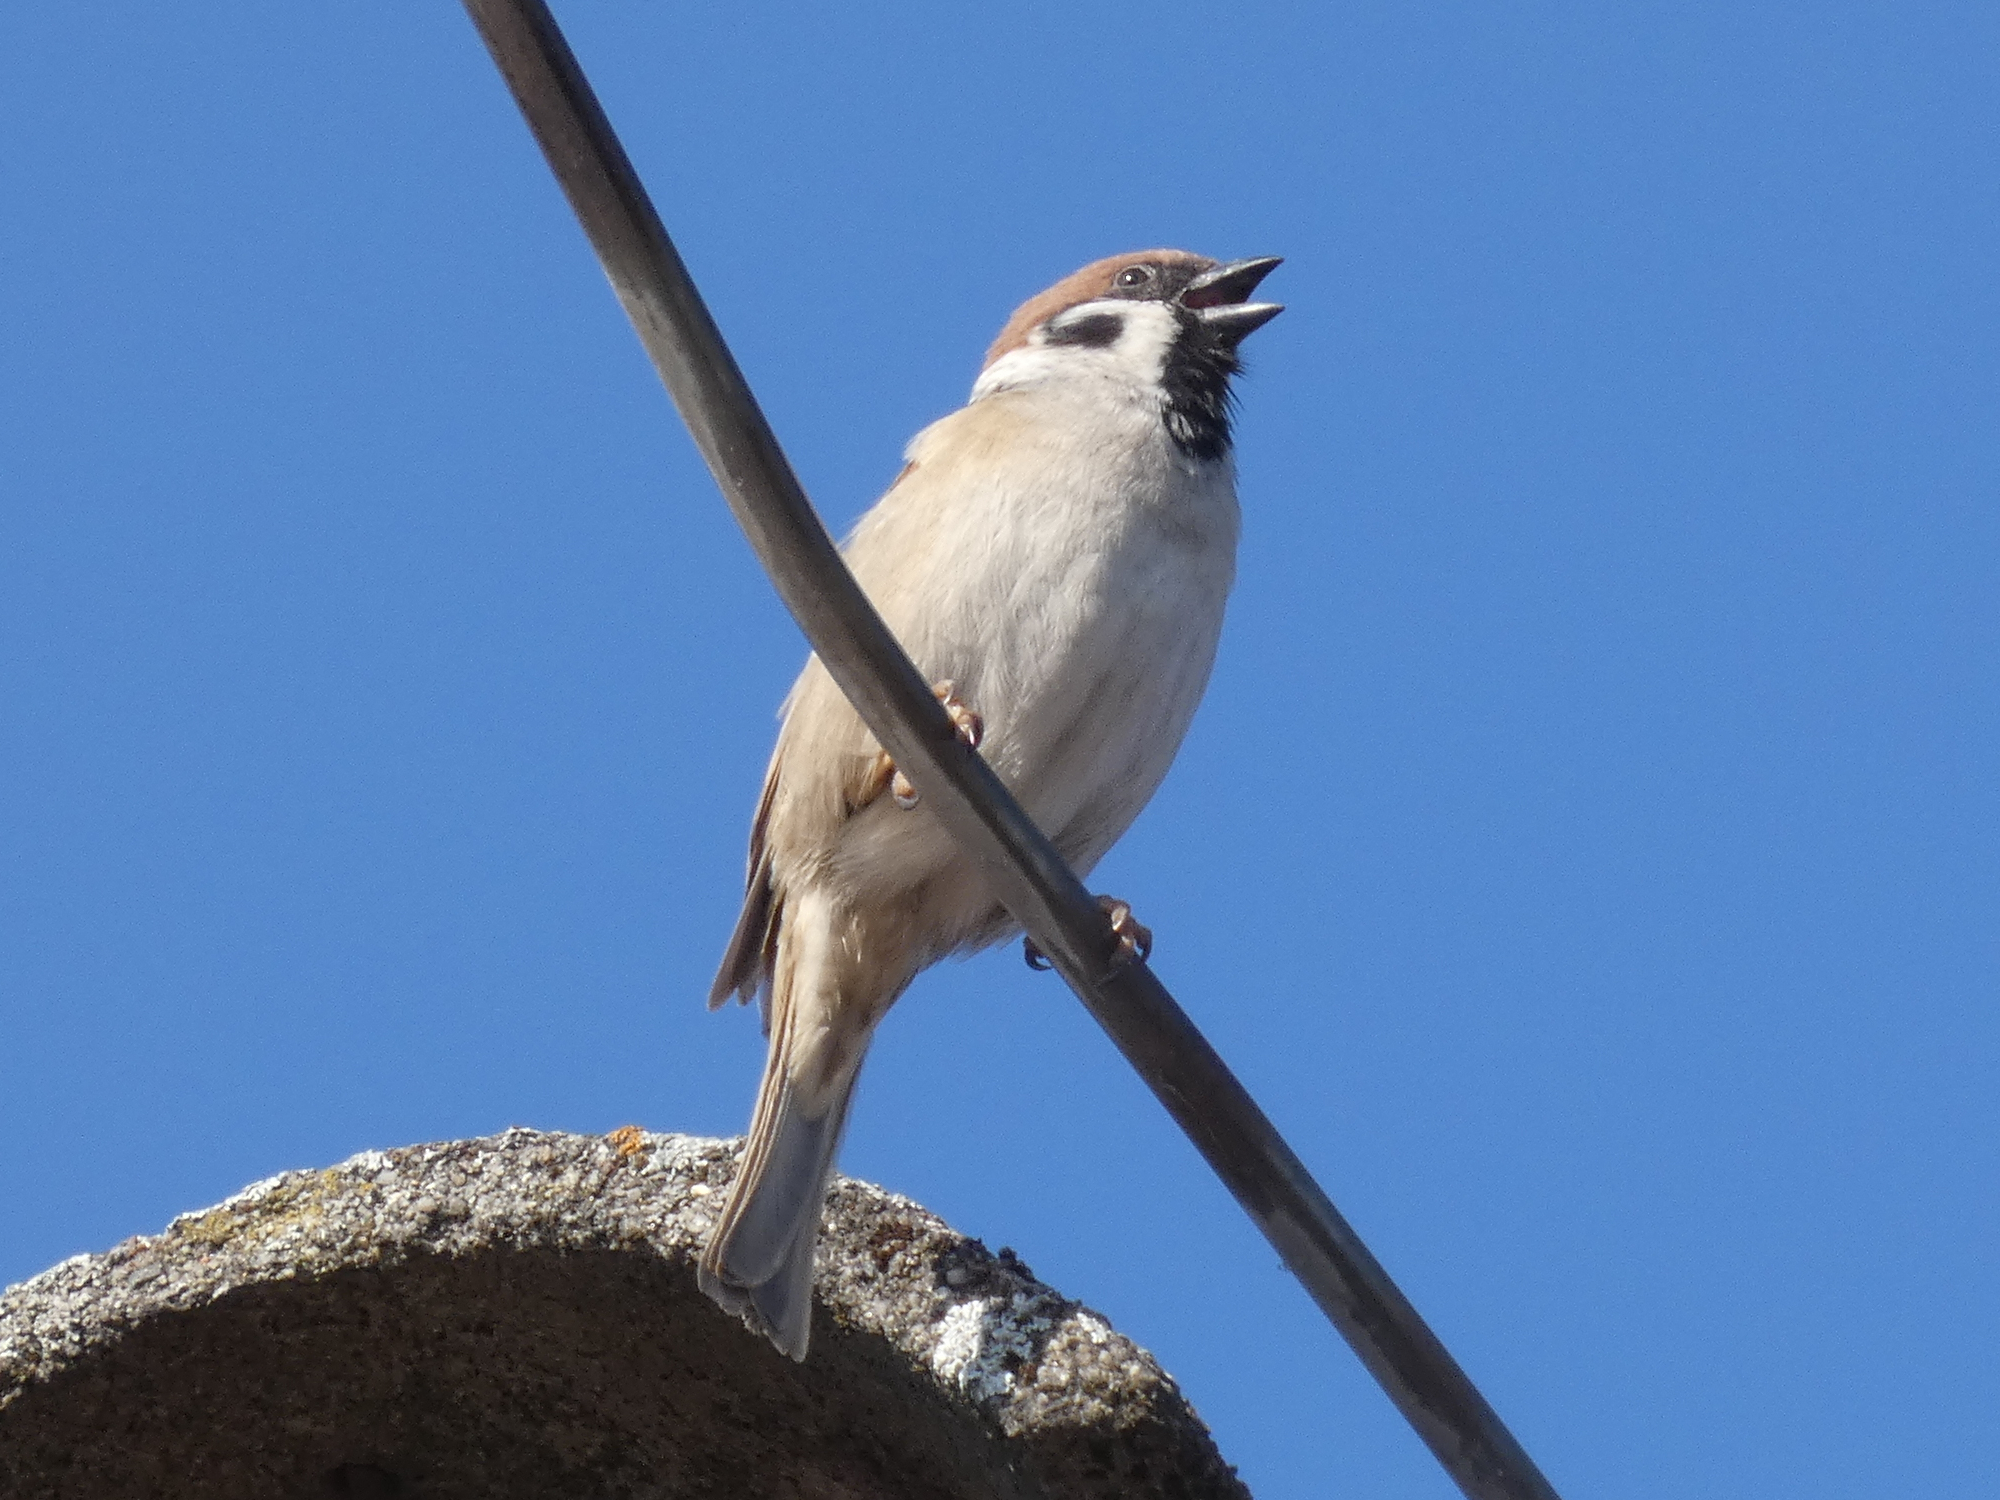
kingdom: Animalia
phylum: Chordata
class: Aves
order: Passeriformes
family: Passeridae
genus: Passer
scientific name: Passer montanus
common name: Eurasian tree sparrow
